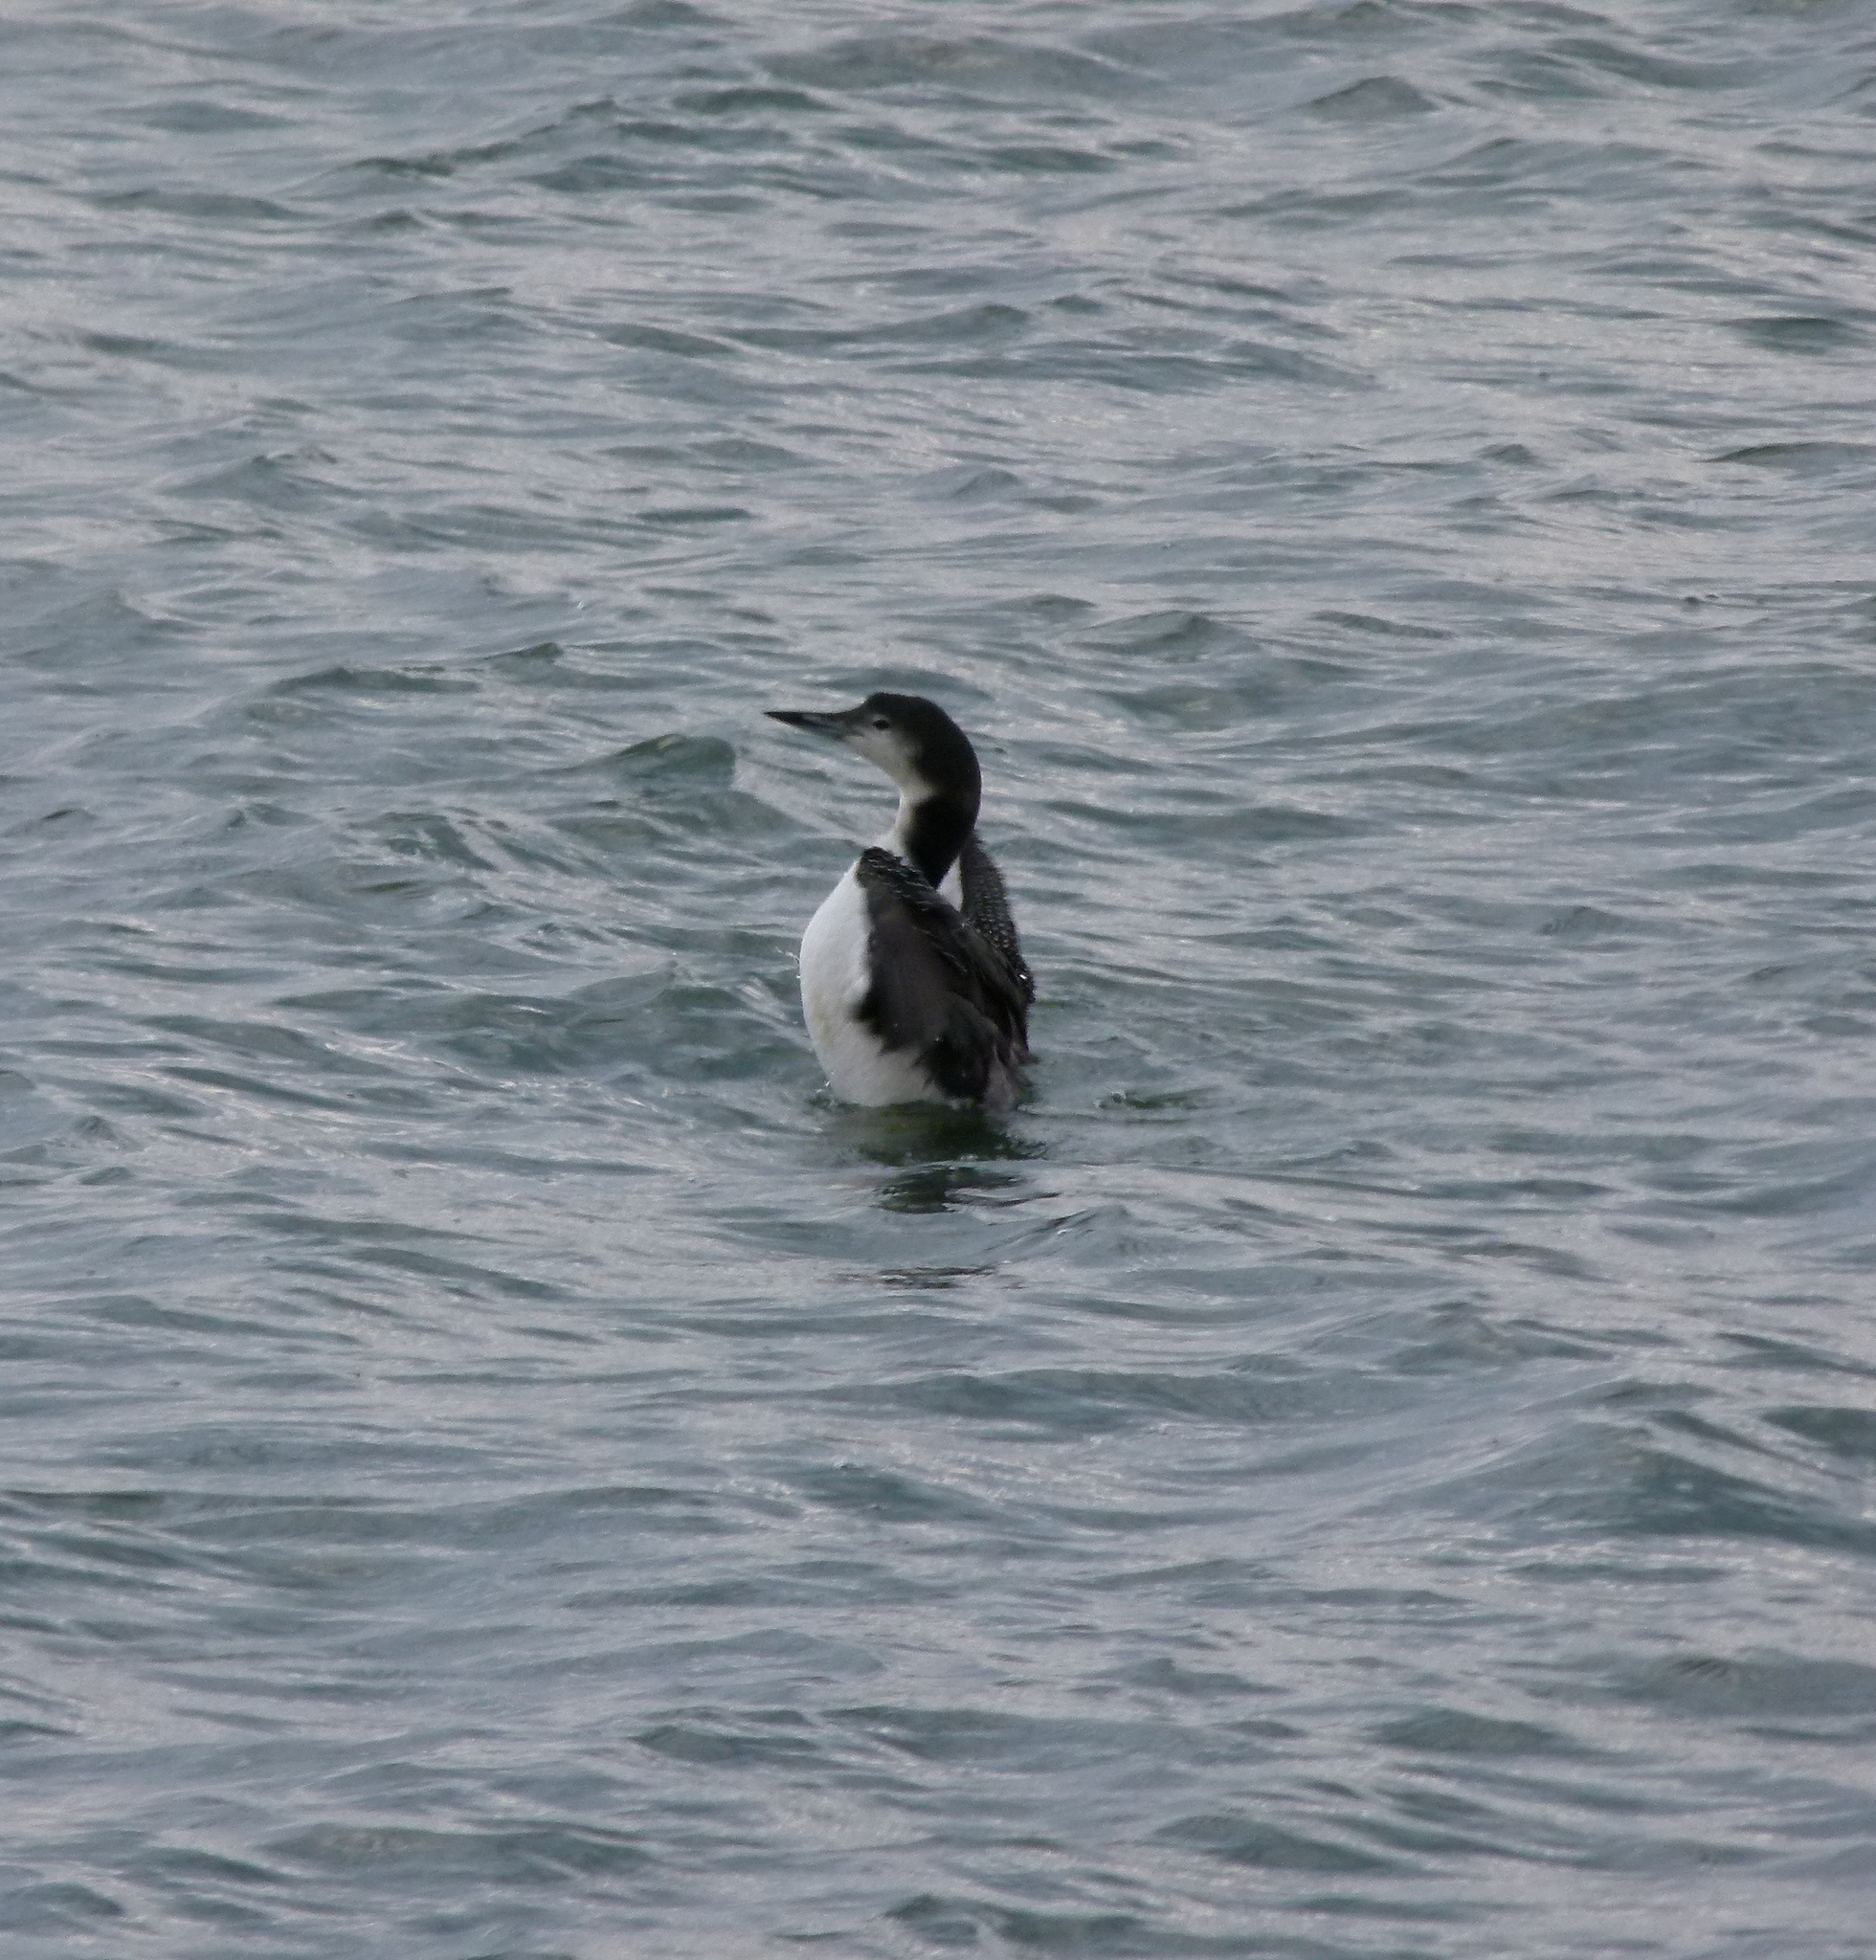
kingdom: Animalia
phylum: Chordata
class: Aves
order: Gaviiformes
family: Gaviidae
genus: Gavia
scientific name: Gavia immer
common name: Common loon
